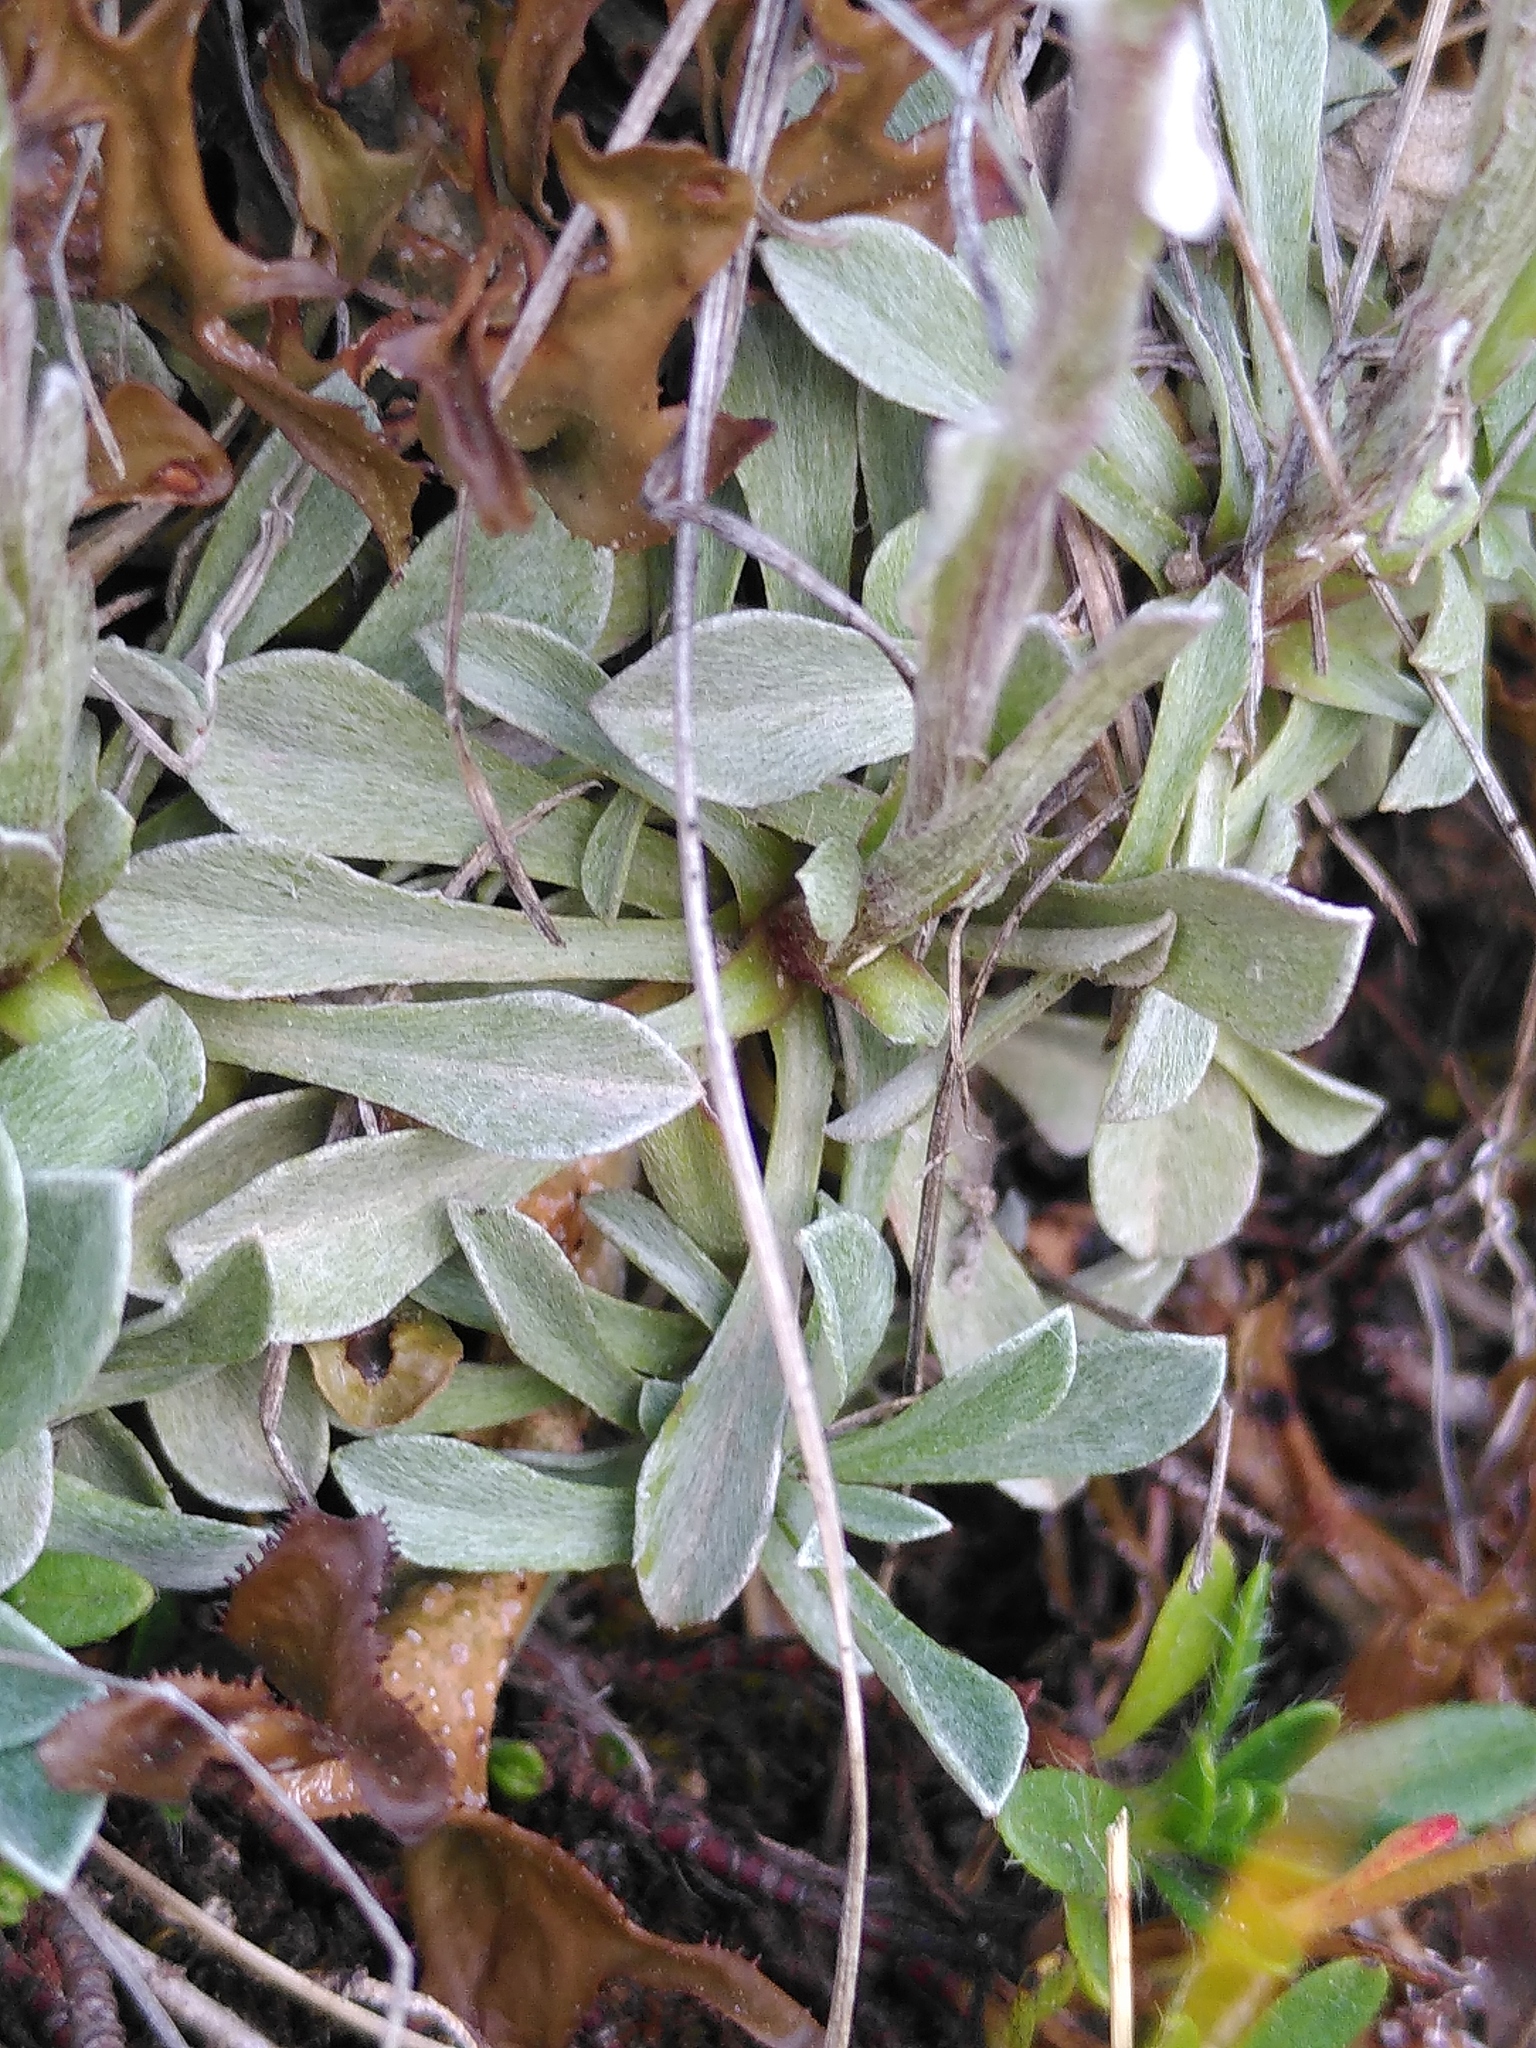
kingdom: Plantae
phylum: Tracheophyta
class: Magnoliopsida
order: Asterales
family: Asteraceae
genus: Antennaria
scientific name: Antennaria dioica
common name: Mountain everlasting
